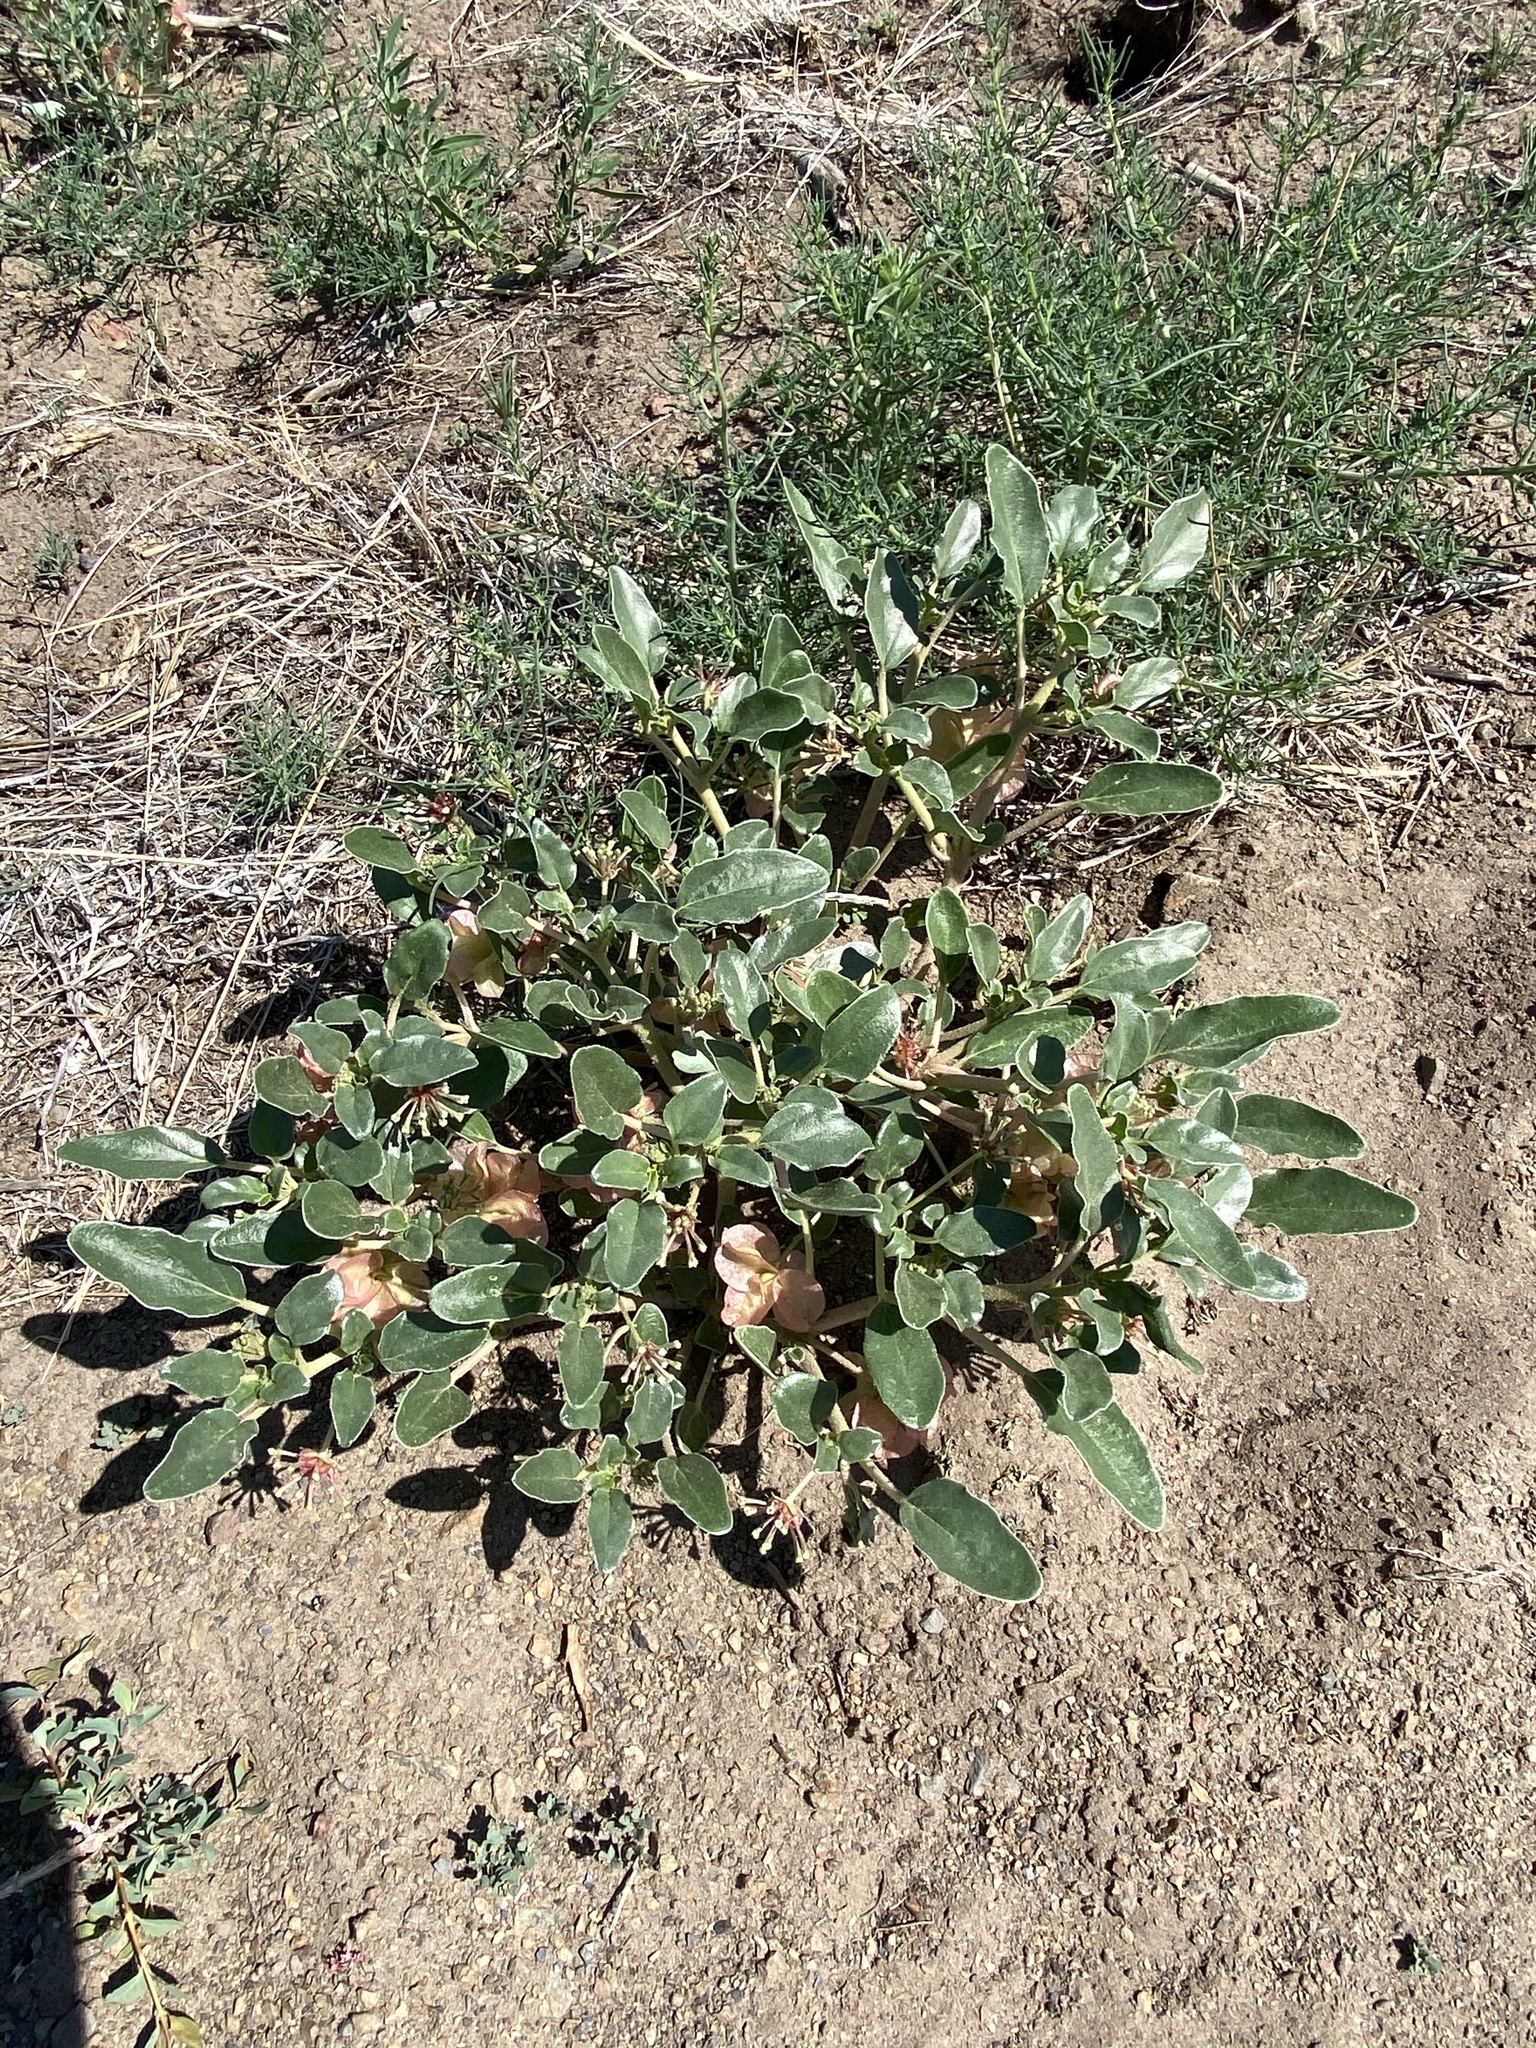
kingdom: Plantae
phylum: Tracheophyta
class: Magnoliopsida
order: Caryophyllales
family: Nyctaginaceae
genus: Tripterocalyx
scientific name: Tripterocalyx micranthus
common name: Small-flowered sand-verbena
